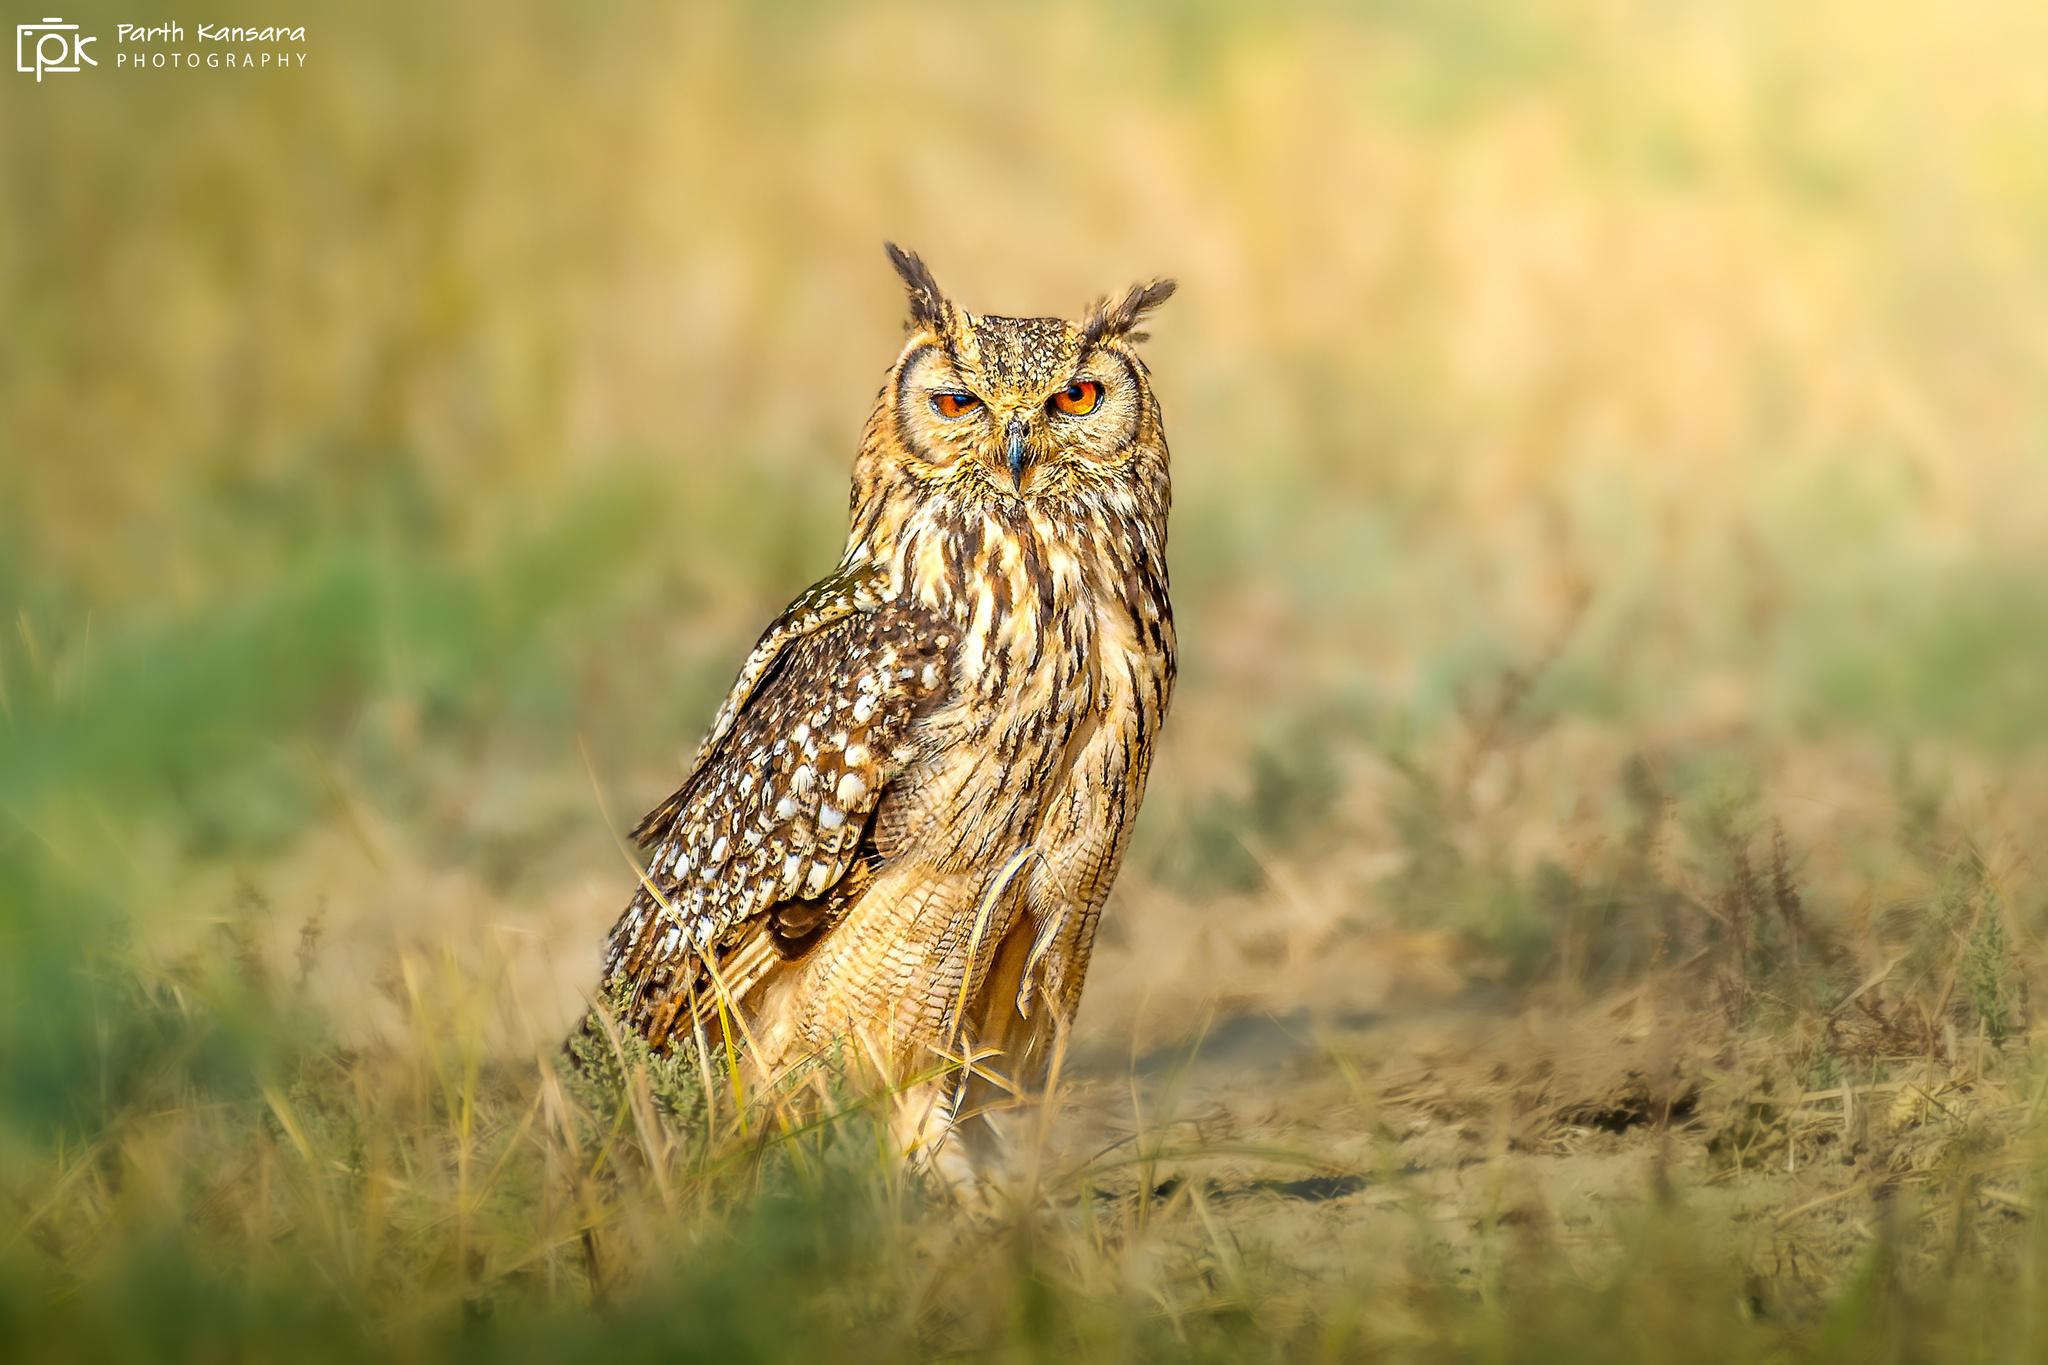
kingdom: Animalia
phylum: Chordata
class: Aves
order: Strigiformes
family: Strigidae
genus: Bubo
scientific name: Bubo bengalensis
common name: Indian eagle-owl
